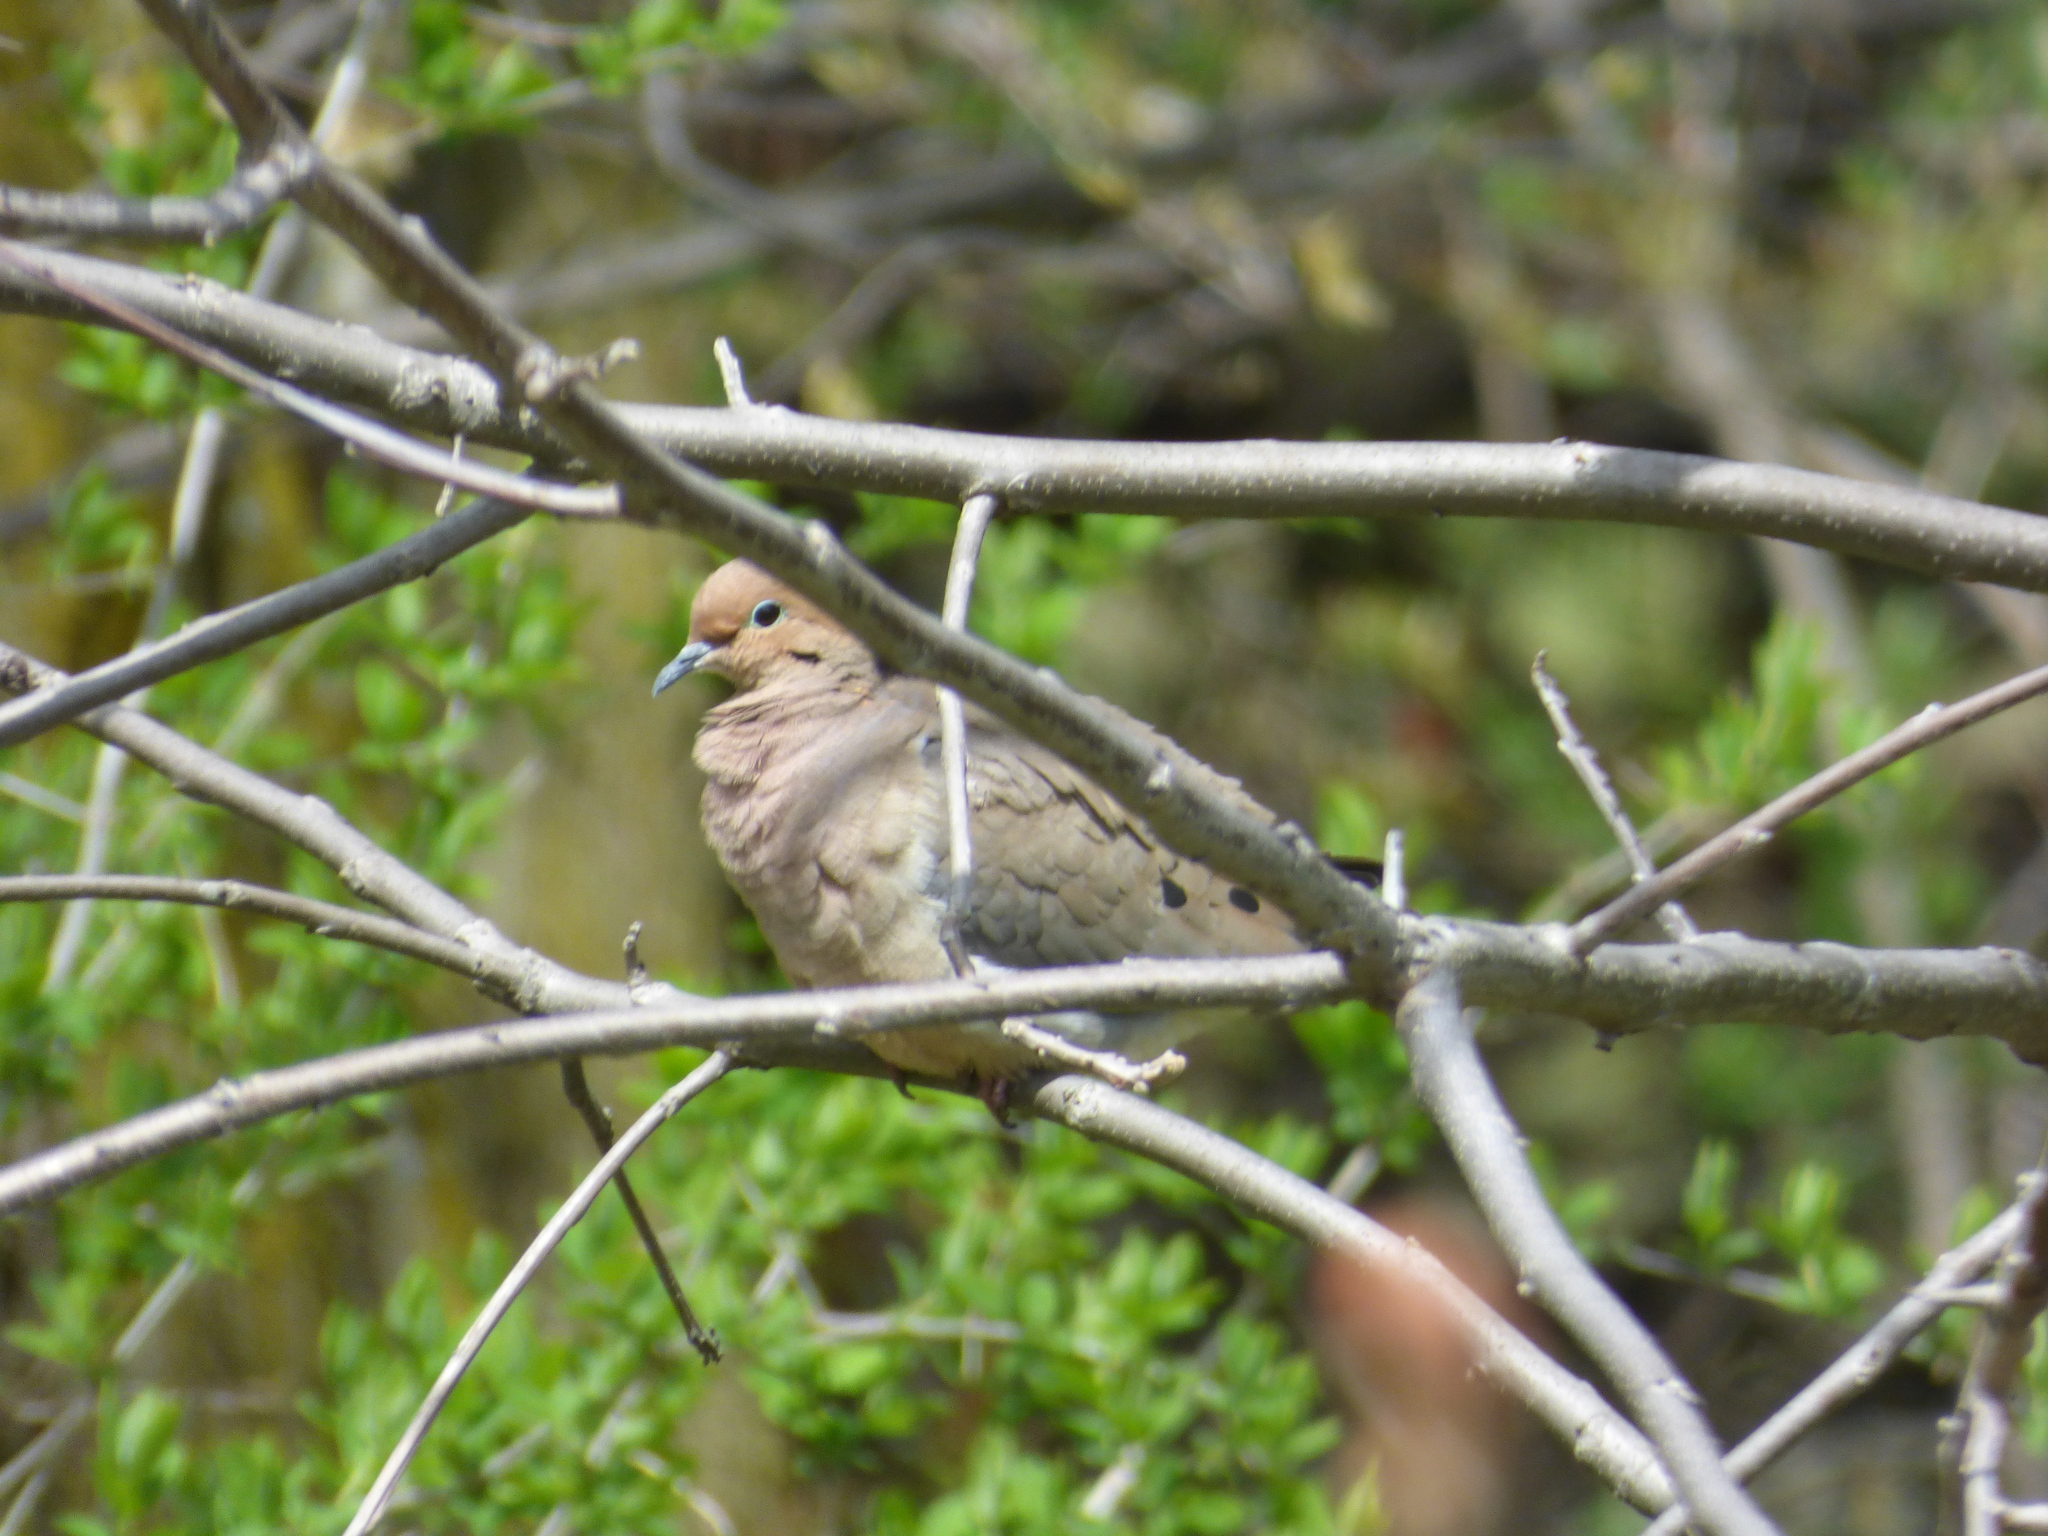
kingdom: Animalia
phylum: Chordata
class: Aves
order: Columbiformes
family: Columbidae
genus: Zenaida
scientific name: Zenaida macroura
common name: Mourning dove
